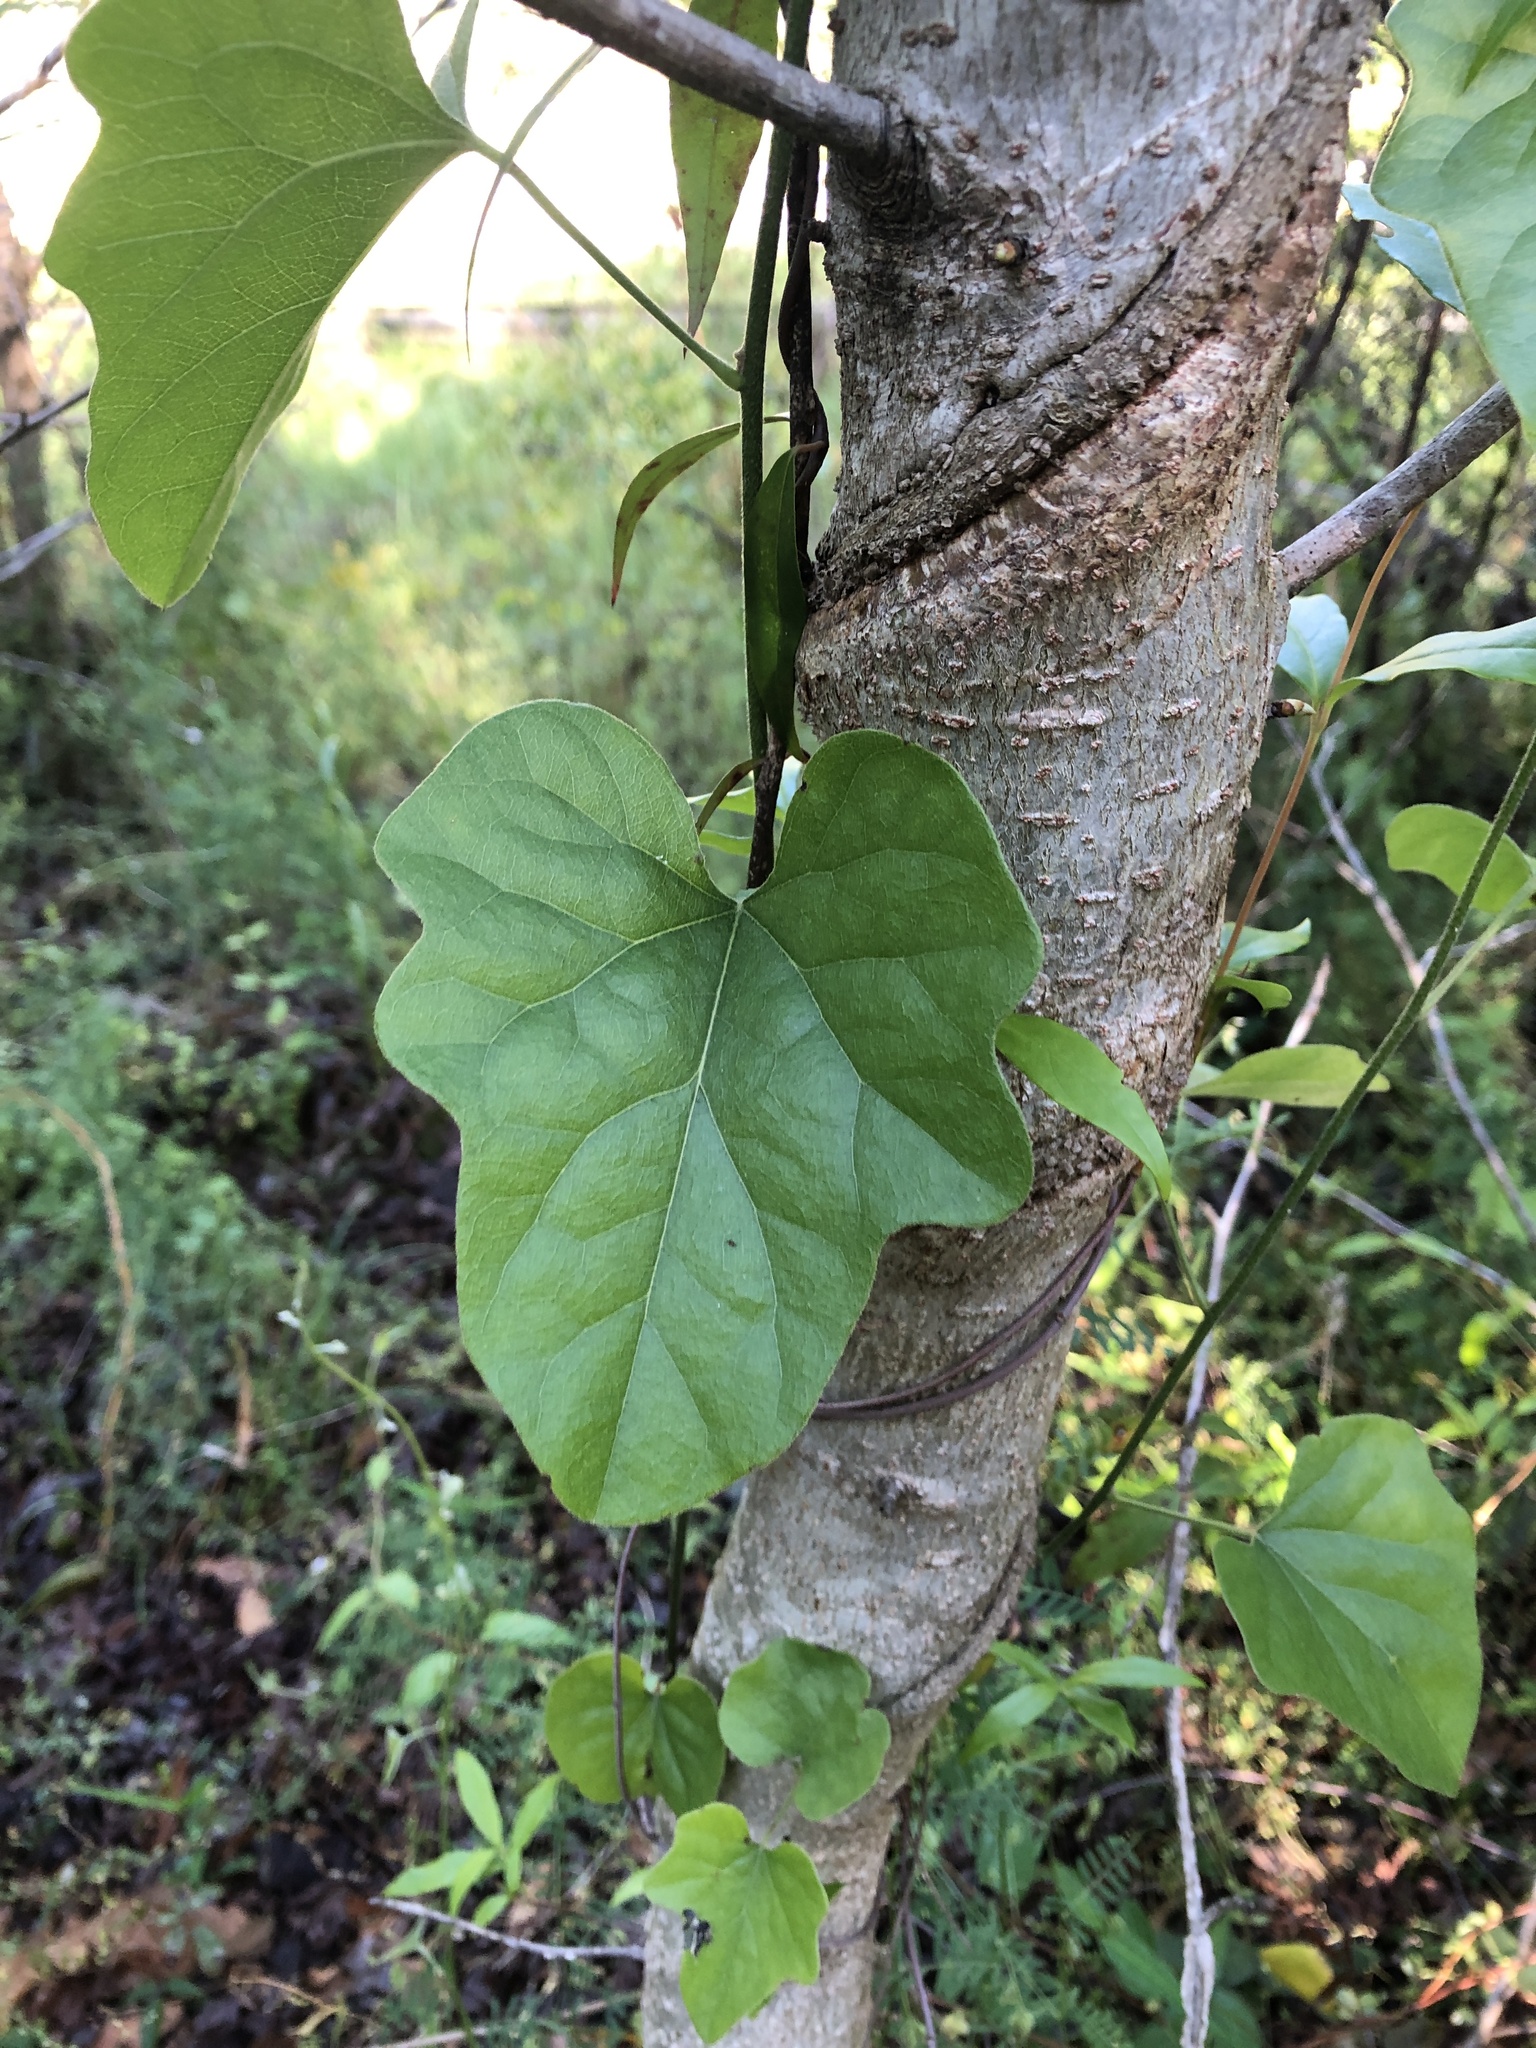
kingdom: Plantae
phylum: Tracheophyta
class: Magnoliopsida
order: Ranunculales
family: Menispermaceae
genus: Cocculus
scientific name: Cocculus carolinus
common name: Carolina moonseed
